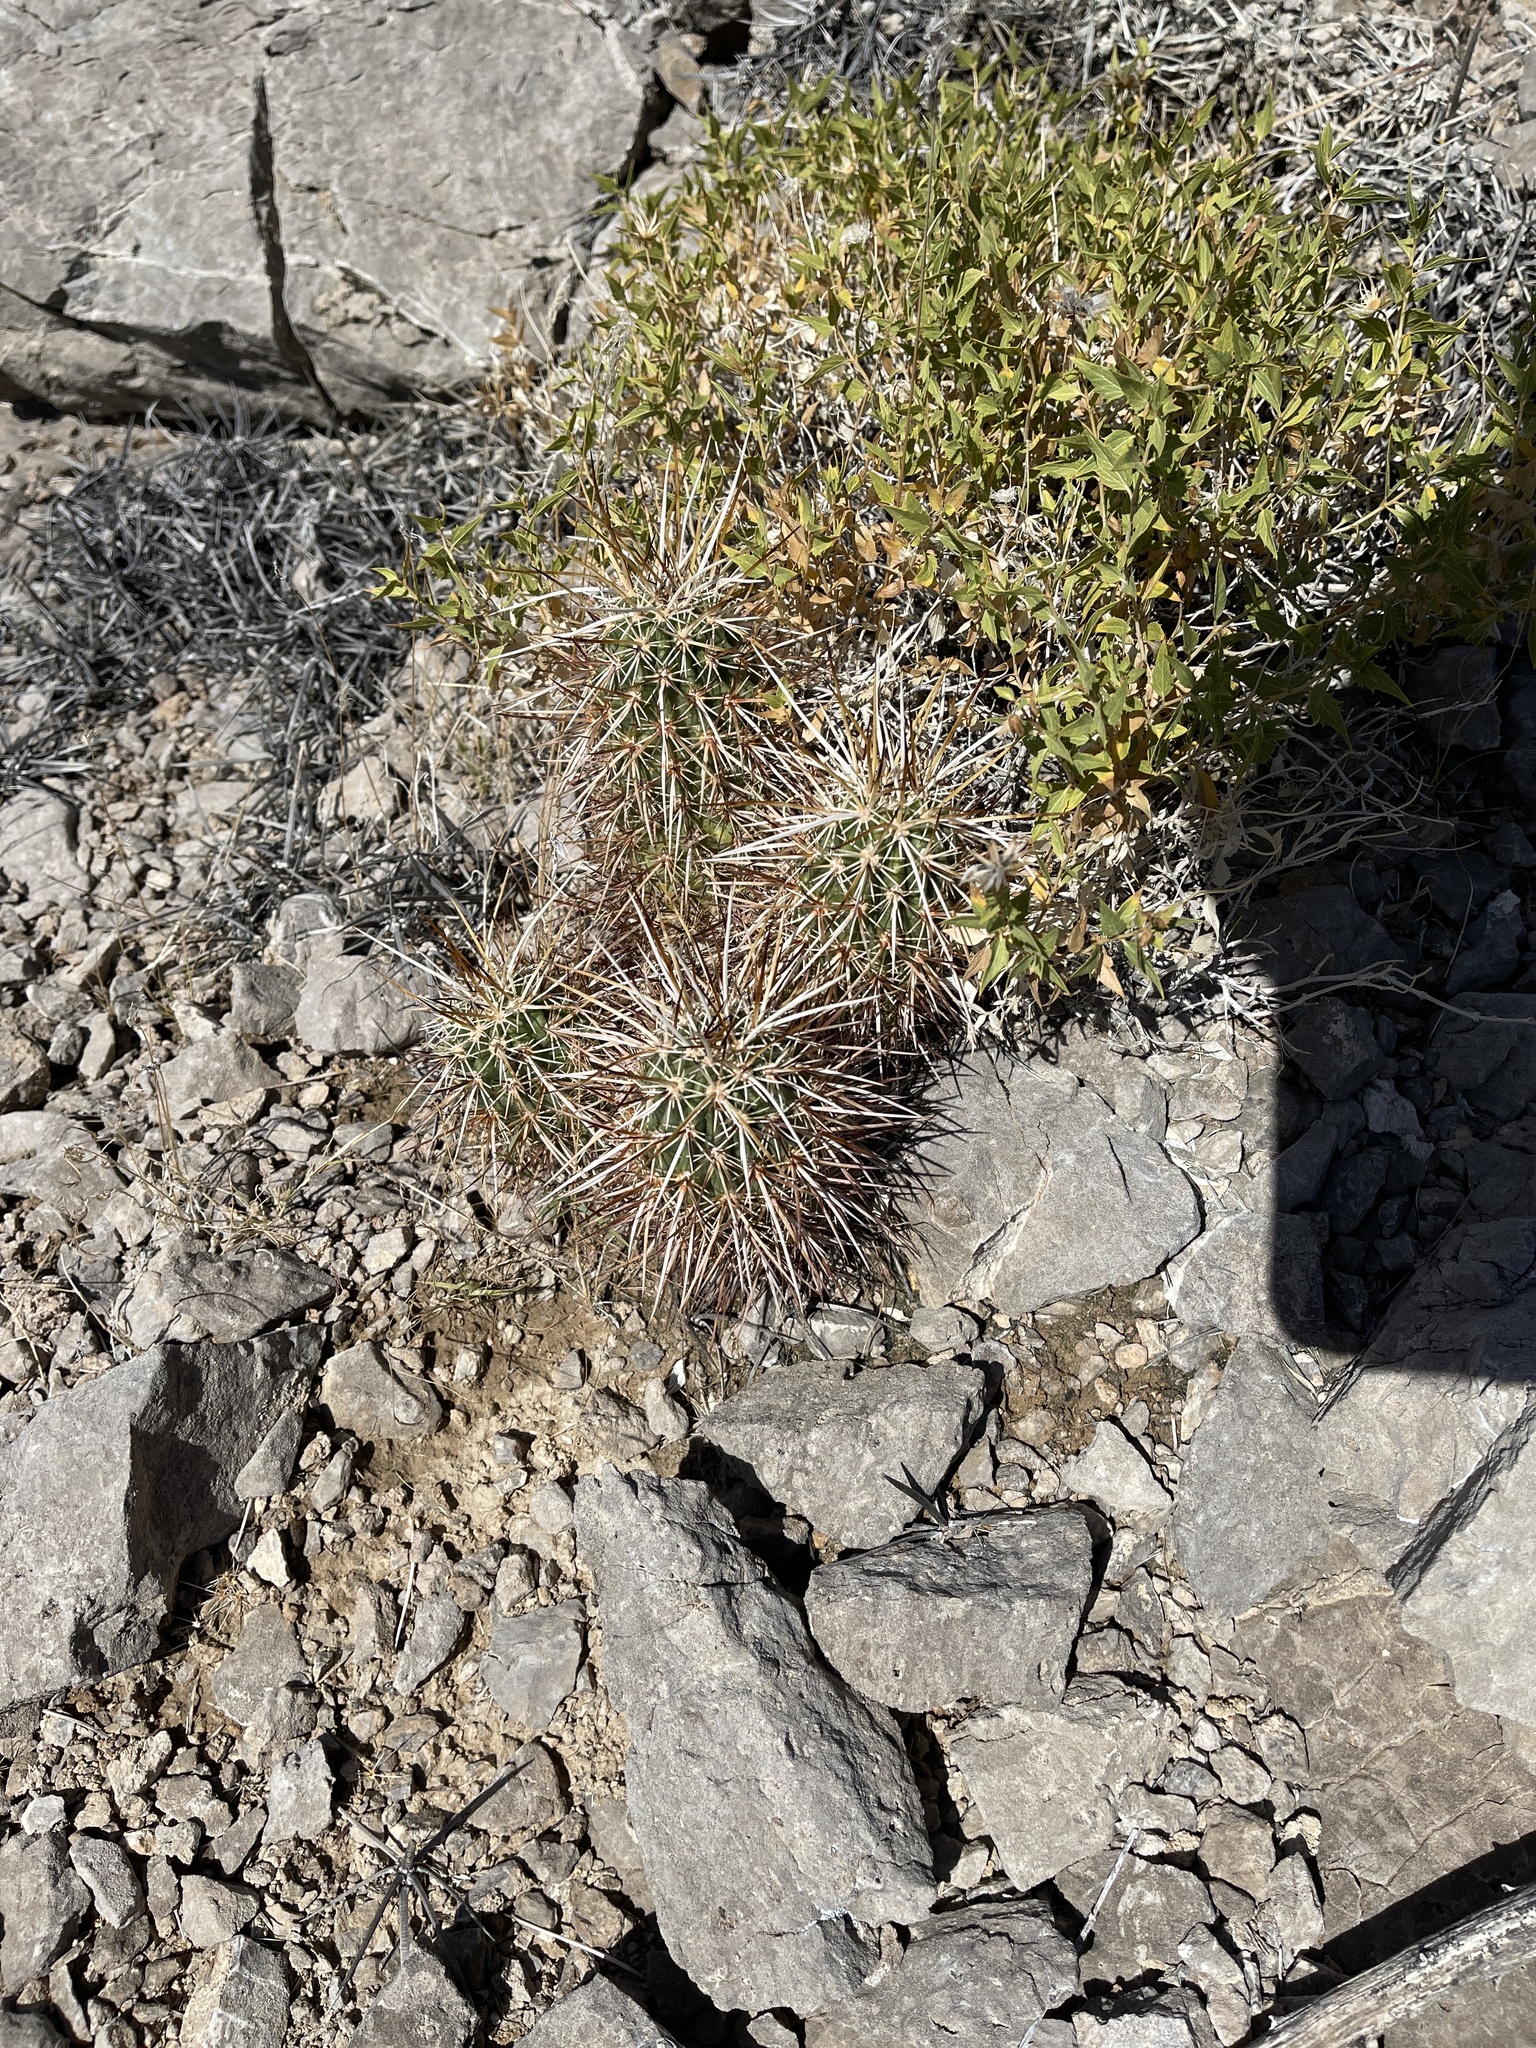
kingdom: Plantae
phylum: Tracheophyta
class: Magnoliopsida
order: Caryophyllales
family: Cactaceae
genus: Echinocereus
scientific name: Echinocereus engelmannii
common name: Engelmann's hedgehog cactus
